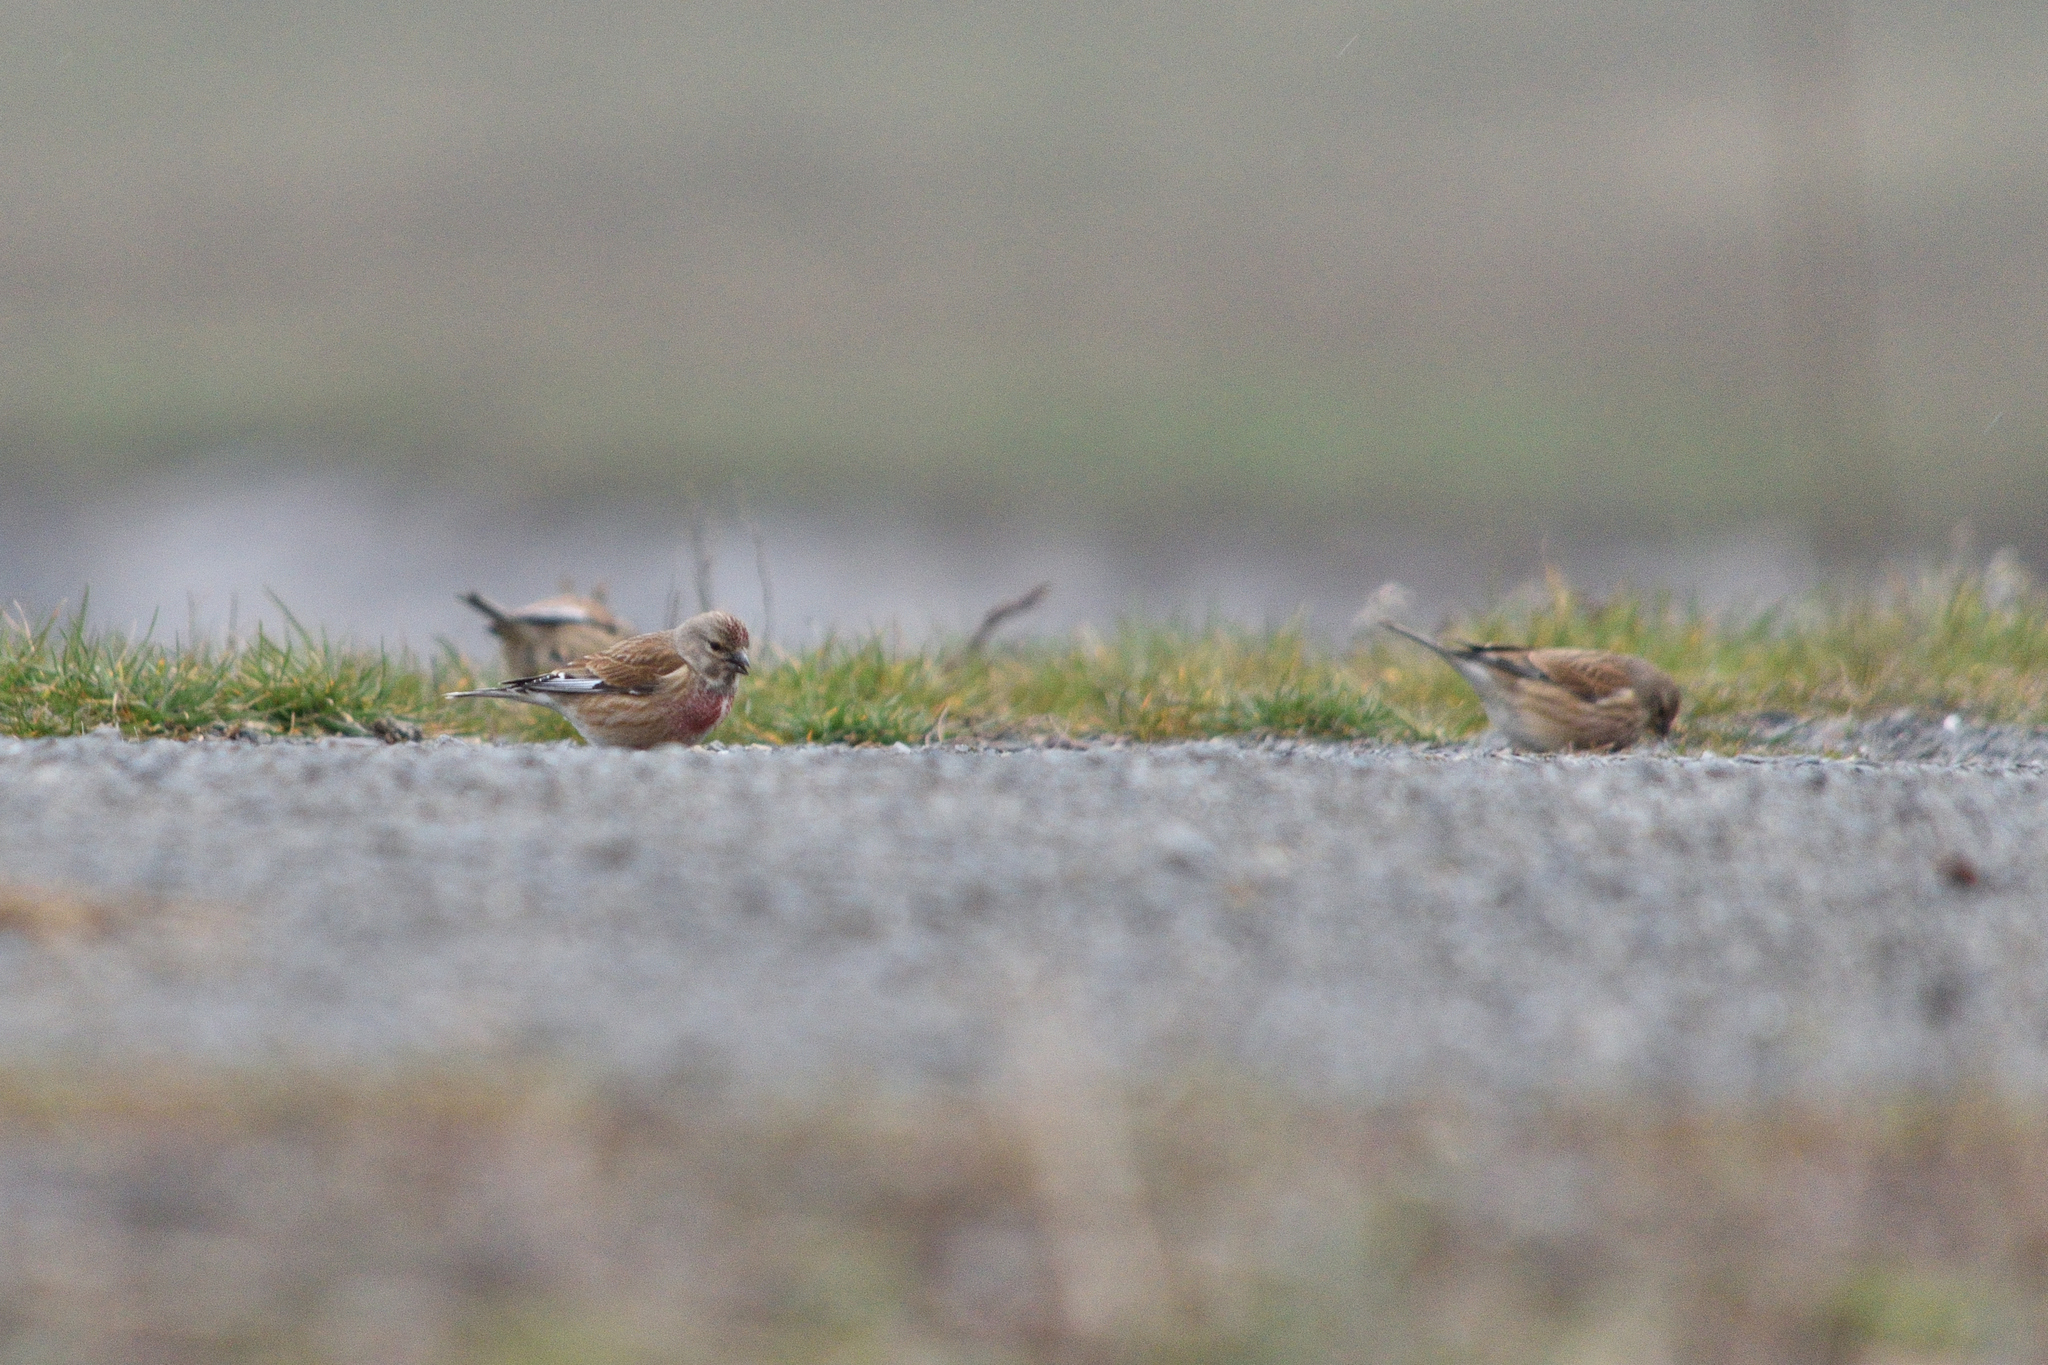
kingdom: Animalia
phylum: Chordata
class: Aves
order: Passeriformes
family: Fringillidae
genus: Linaria
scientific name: Linaria cannabina
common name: Common linnet
